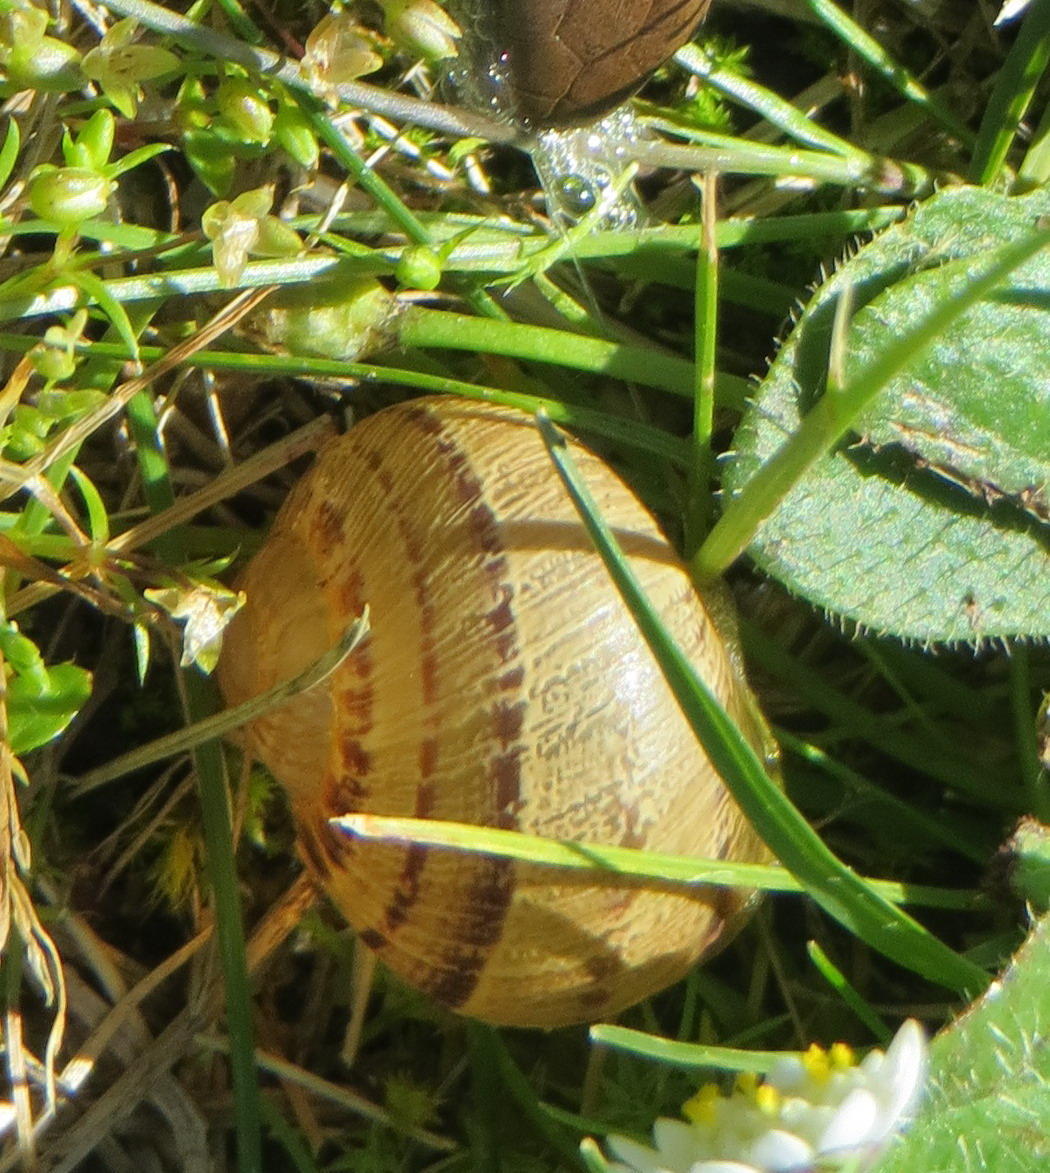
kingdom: Animalia
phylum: Mollusca
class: Gastropoda
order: Stylommatophora
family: Helicidae
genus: Cornu
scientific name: Cornu aspersum
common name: Brown garden snail
